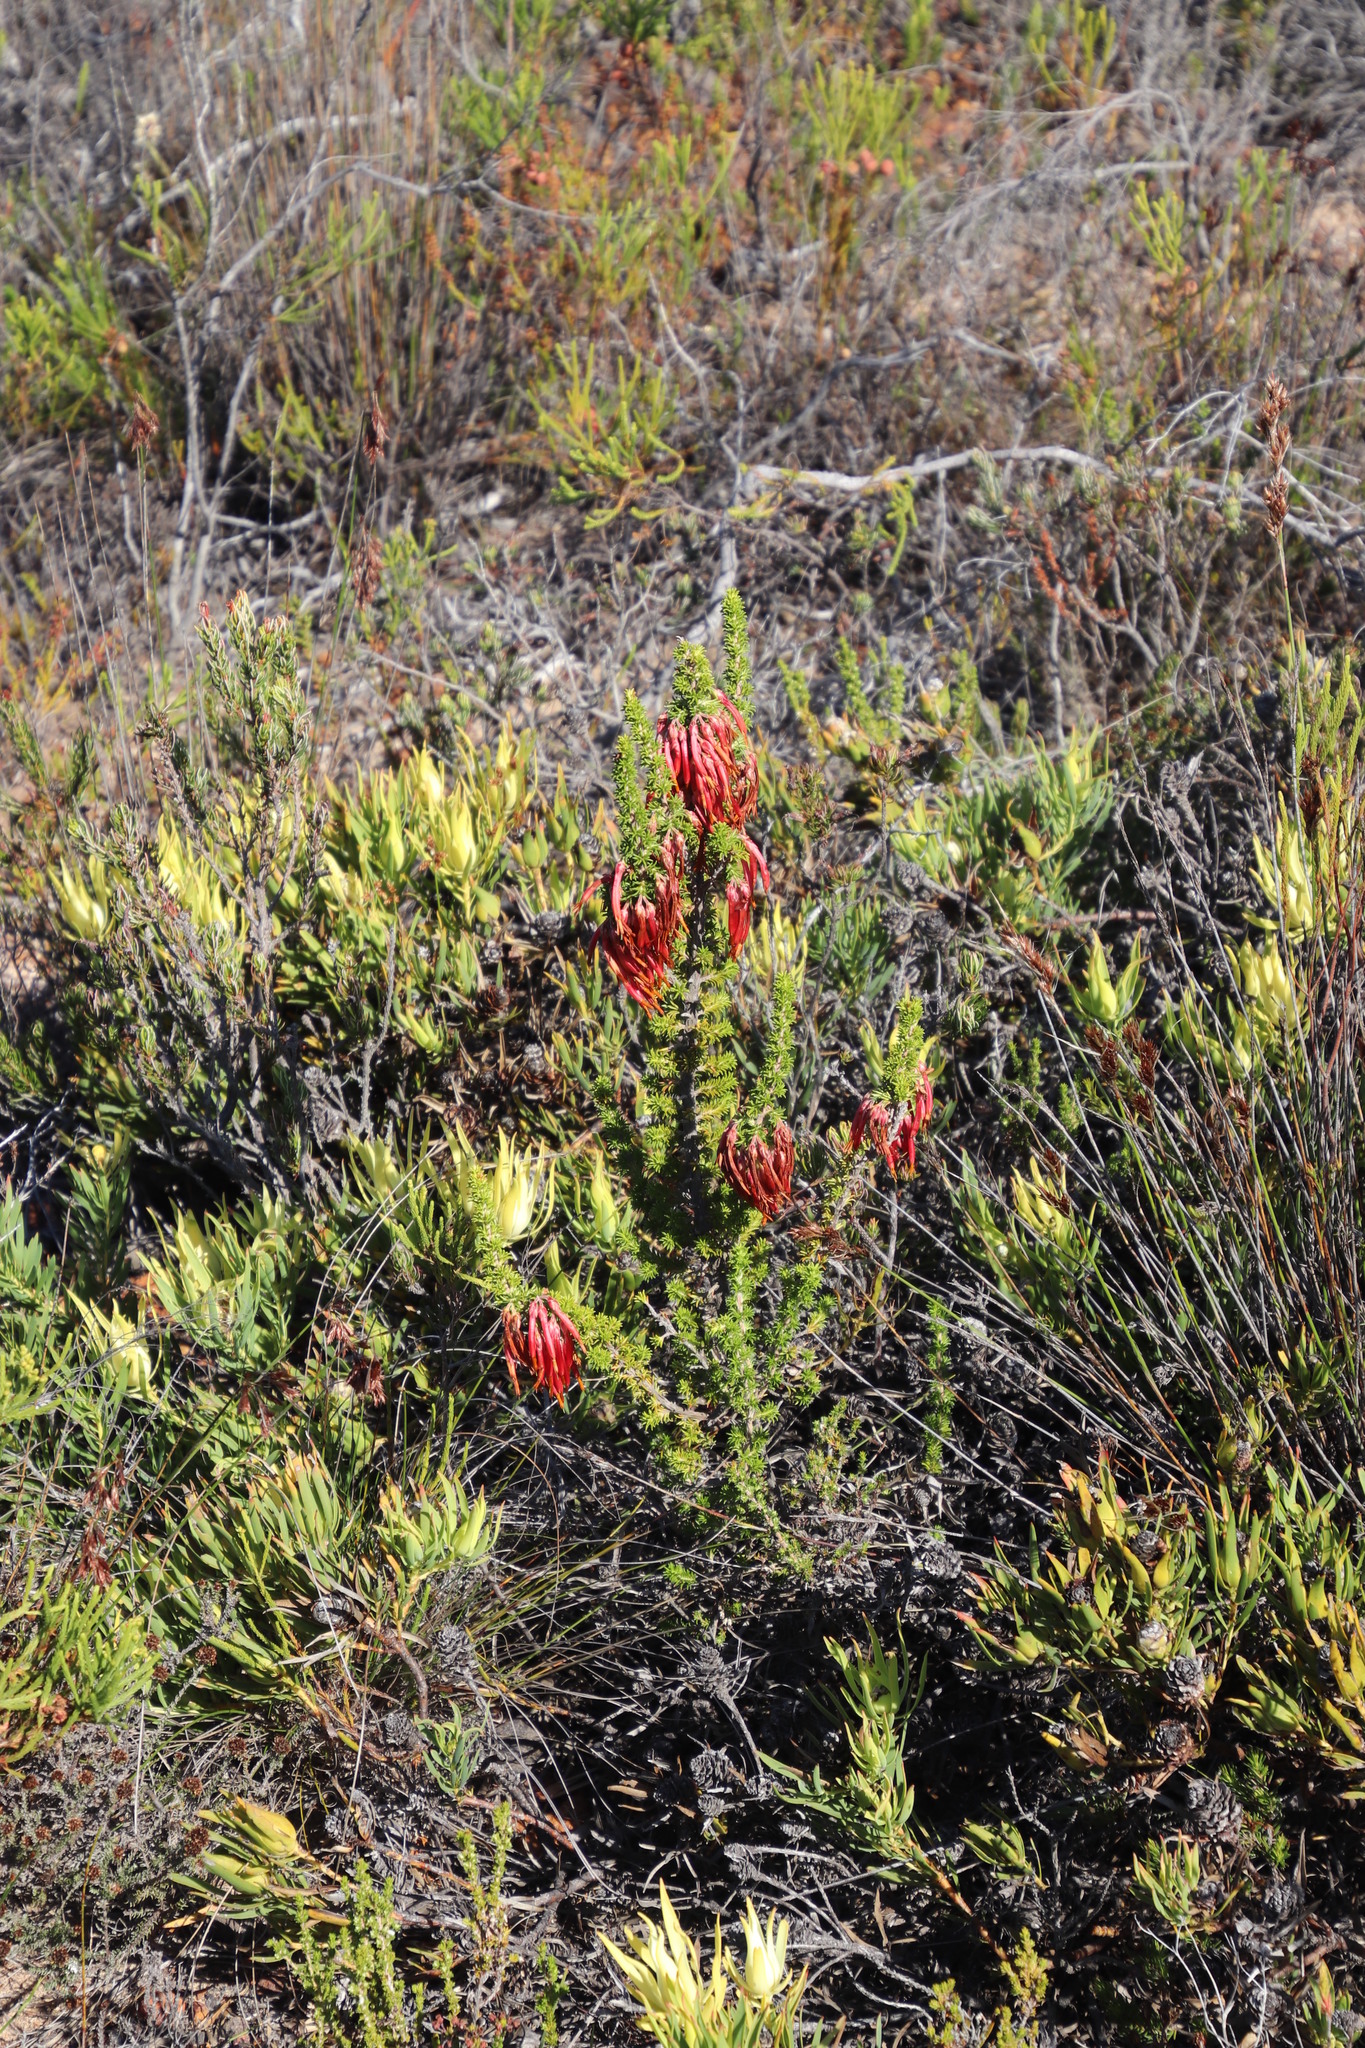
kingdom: Plantae
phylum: Tracheophyta
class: Magnoliopsida
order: Ericales
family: Ericaceae
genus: Erica
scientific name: Erica coccinea
